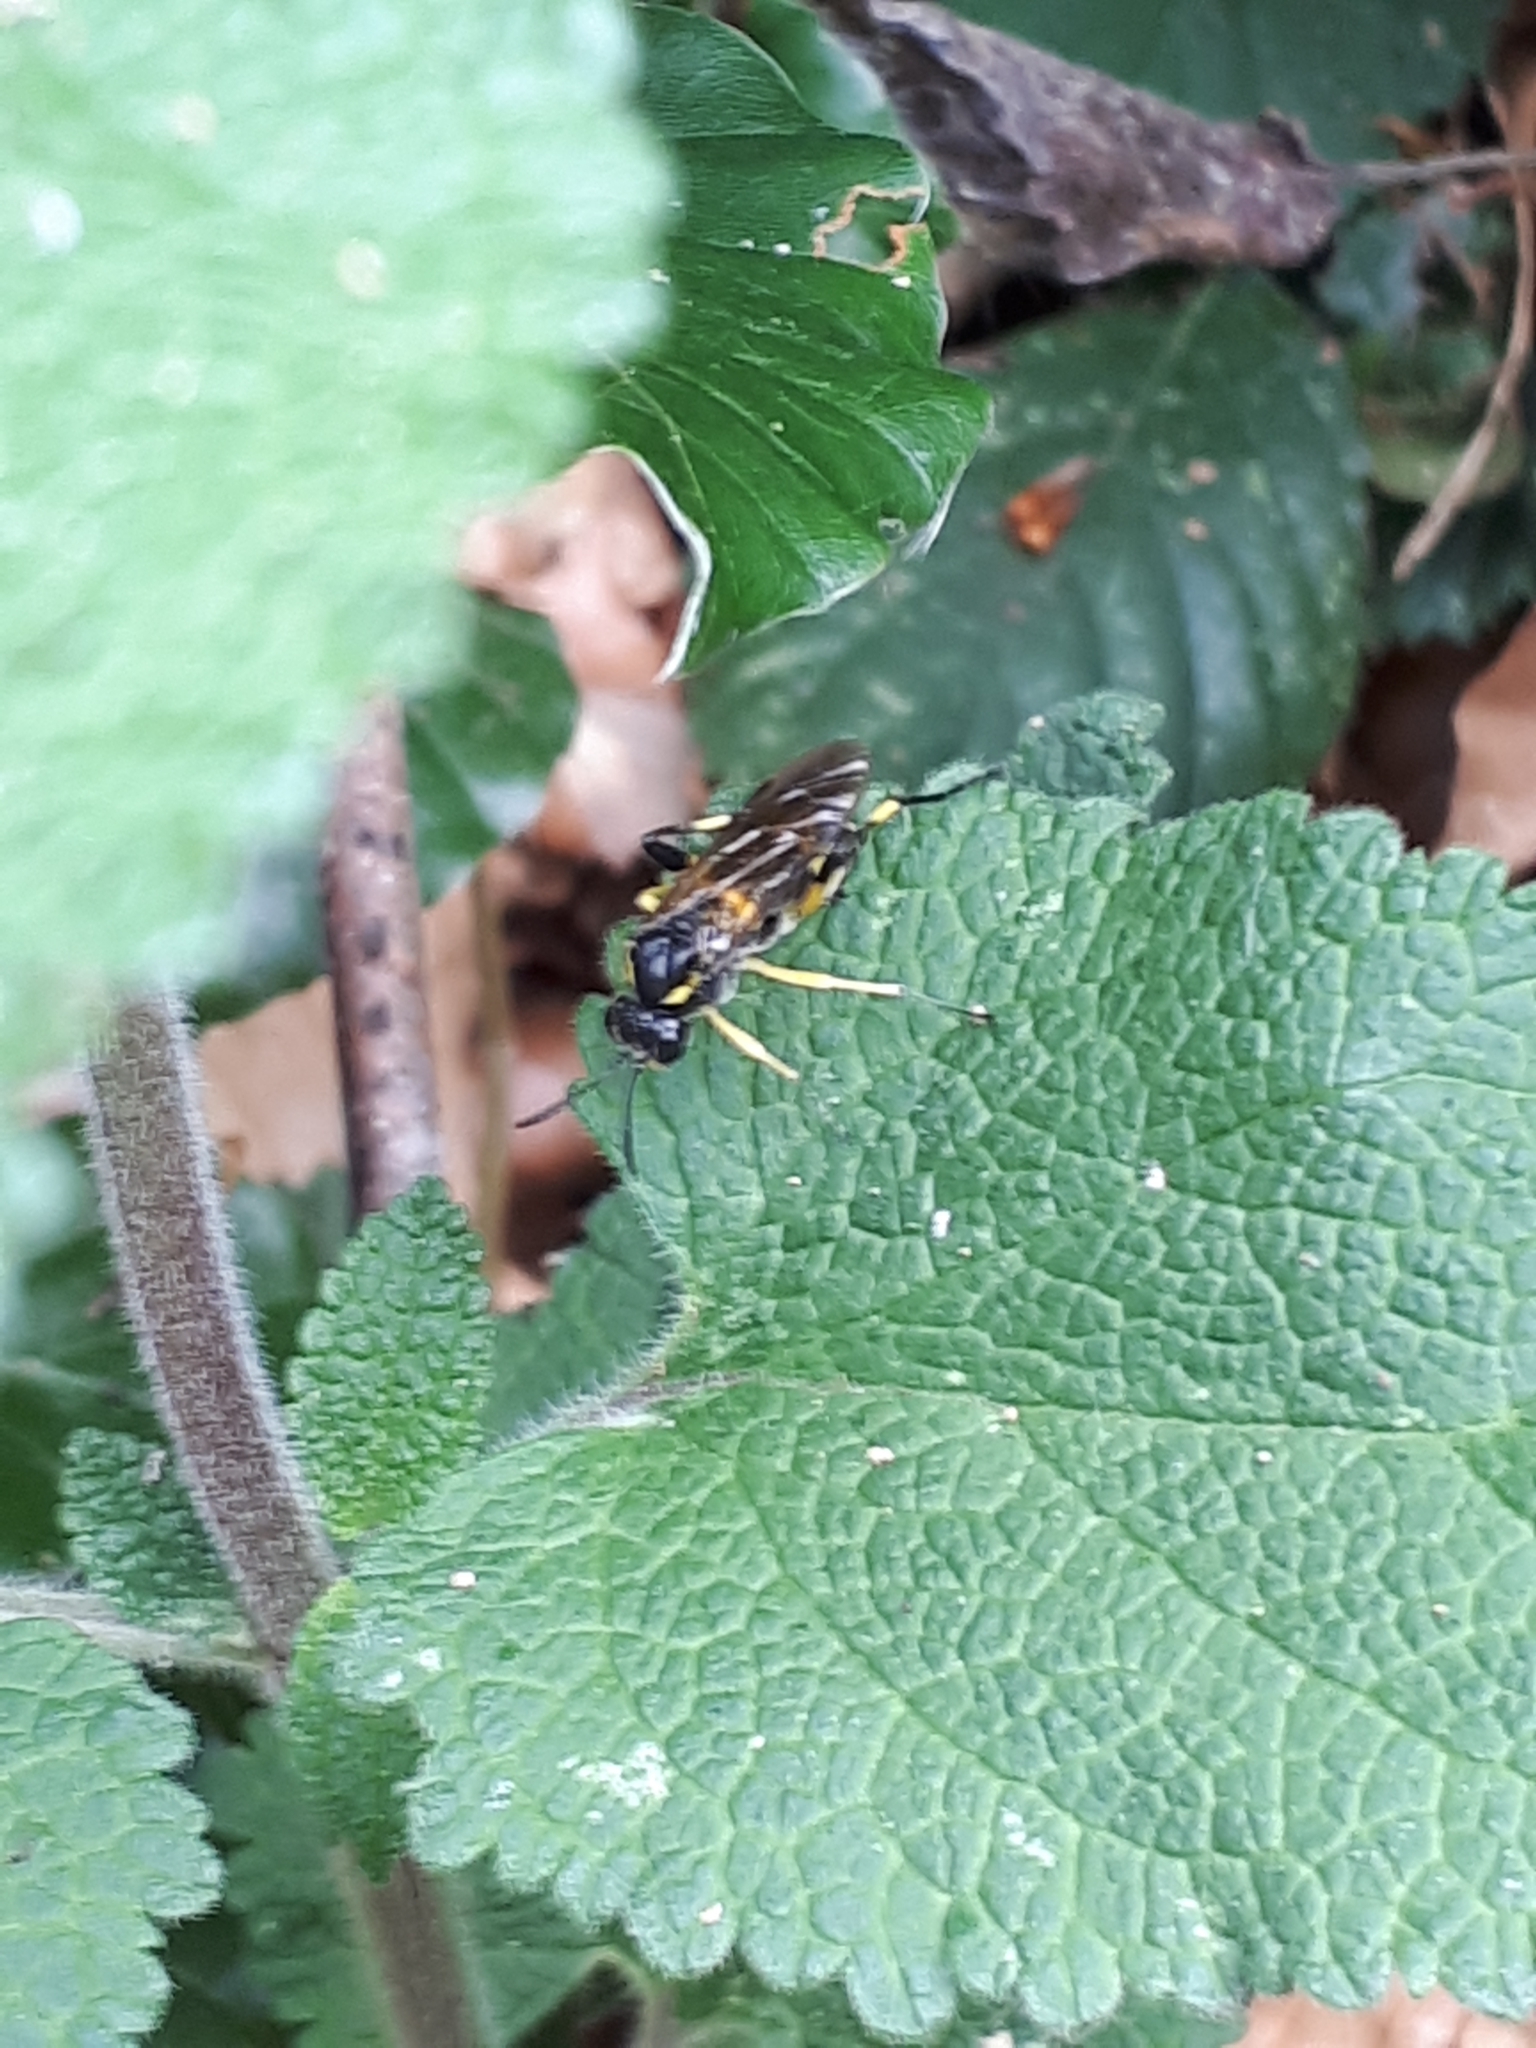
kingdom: Animalia
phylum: Arthropoda
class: Insecta
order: Hymenoptera
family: Tenthredinidae
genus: Macrophya
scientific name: Macrophya montana
